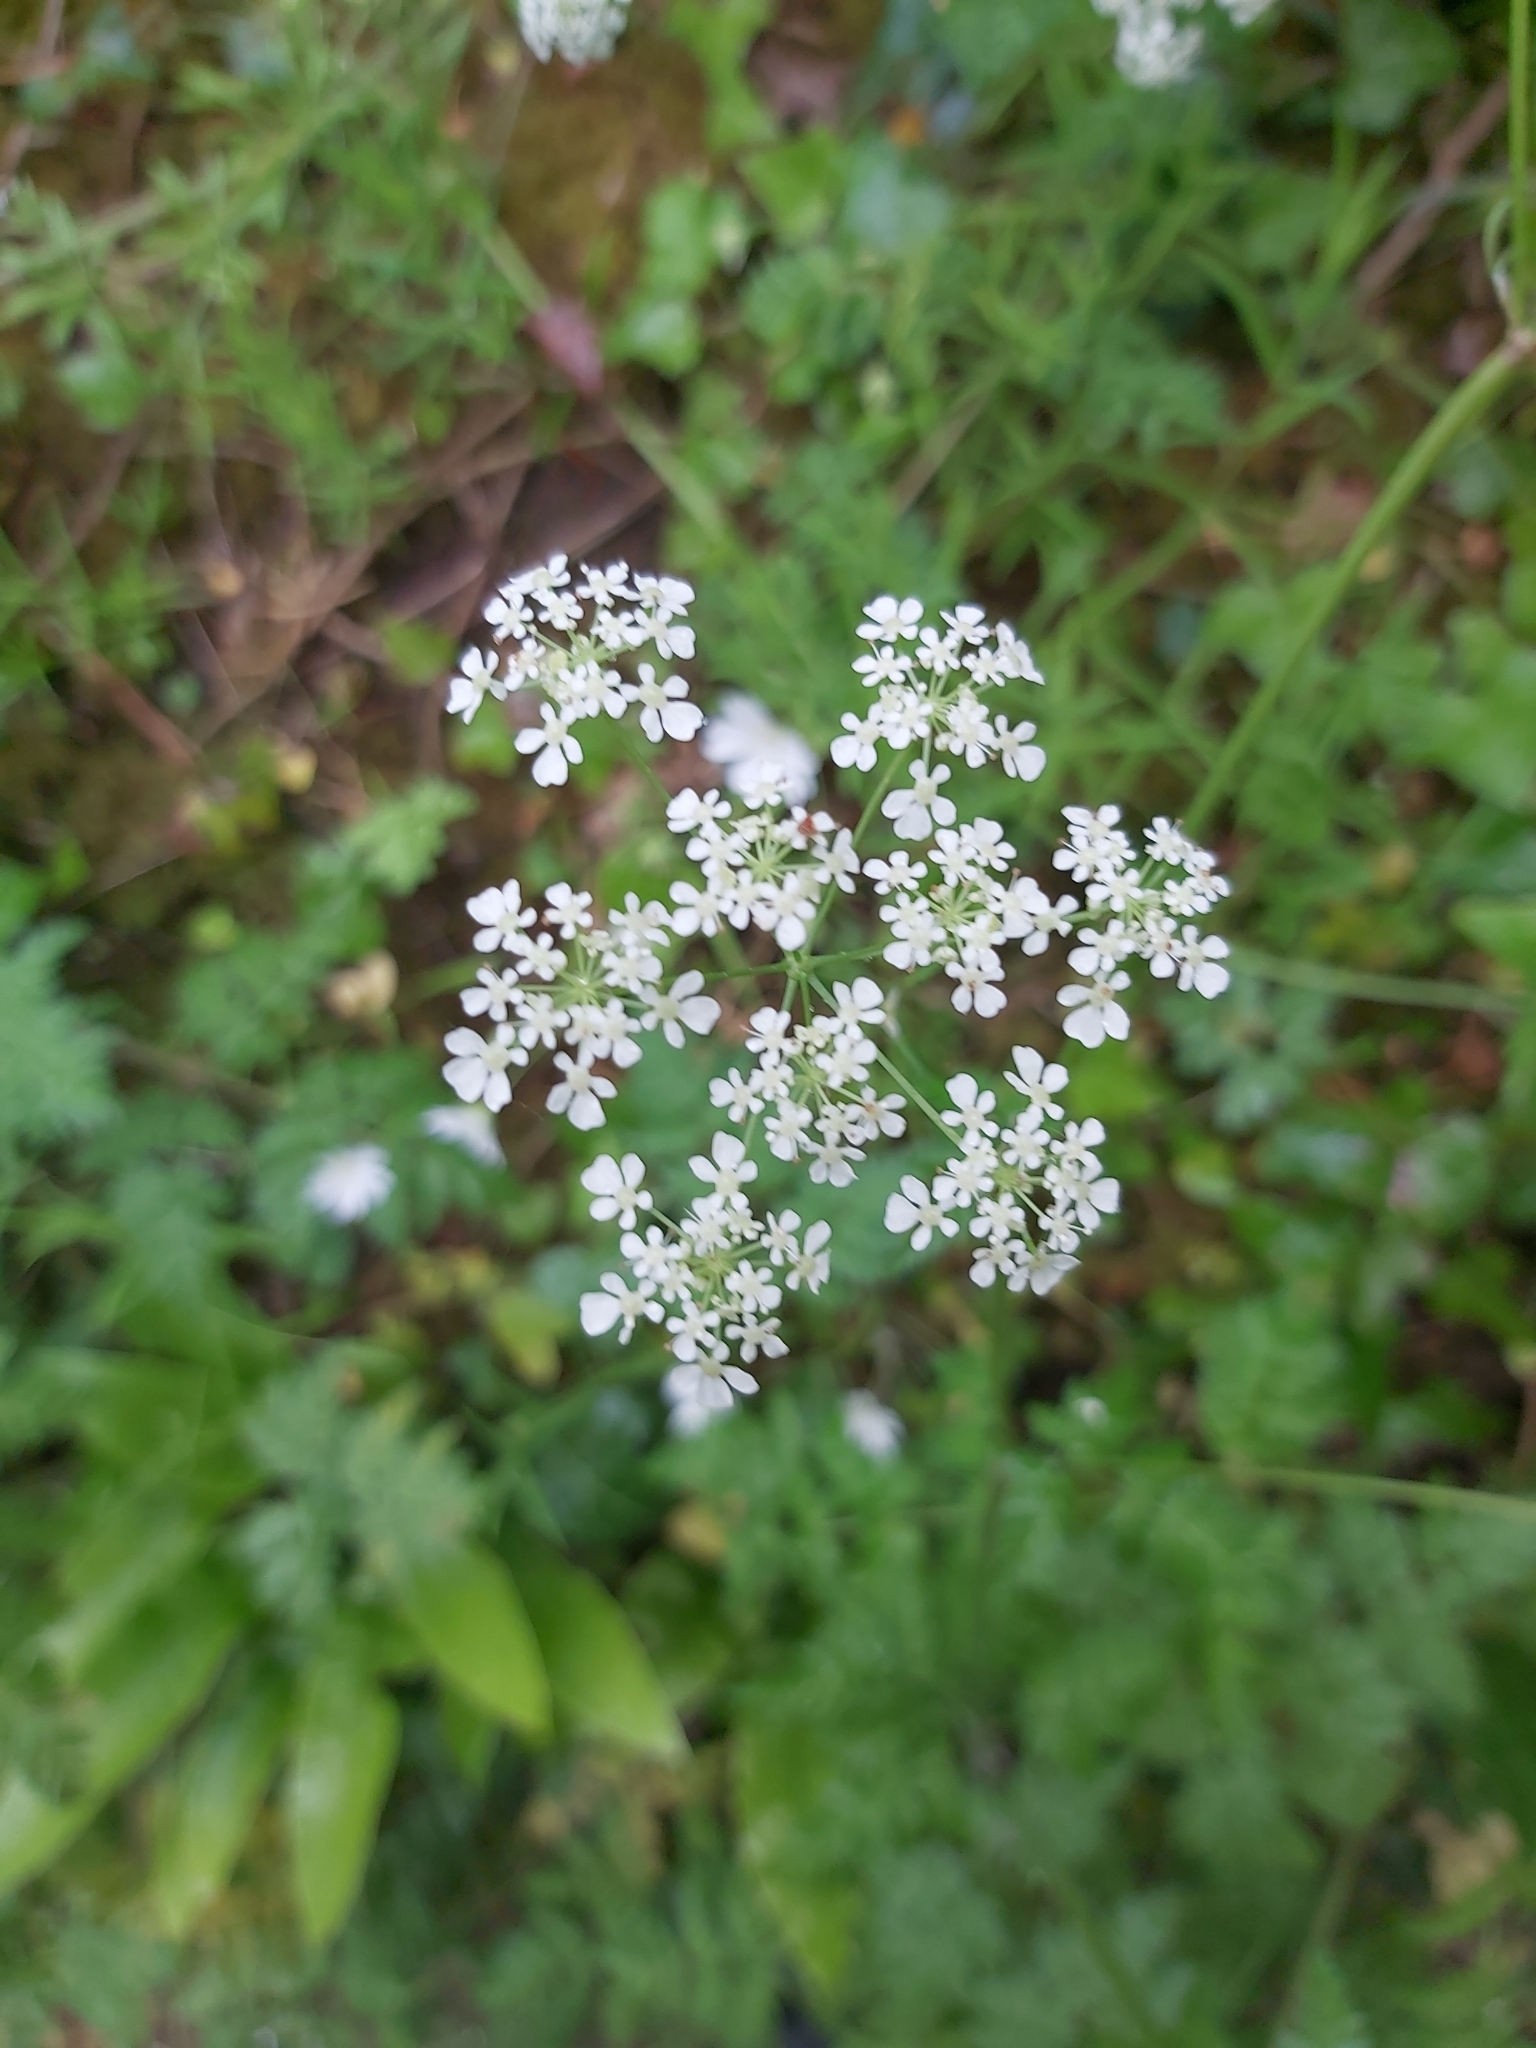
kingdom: Plantae
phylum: Tracheophyta
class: Magnoliopsida
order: Apiales
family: Apiaceae
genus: Anthriscus
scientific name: Anthriscus sylvestris
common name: Cow parsley
